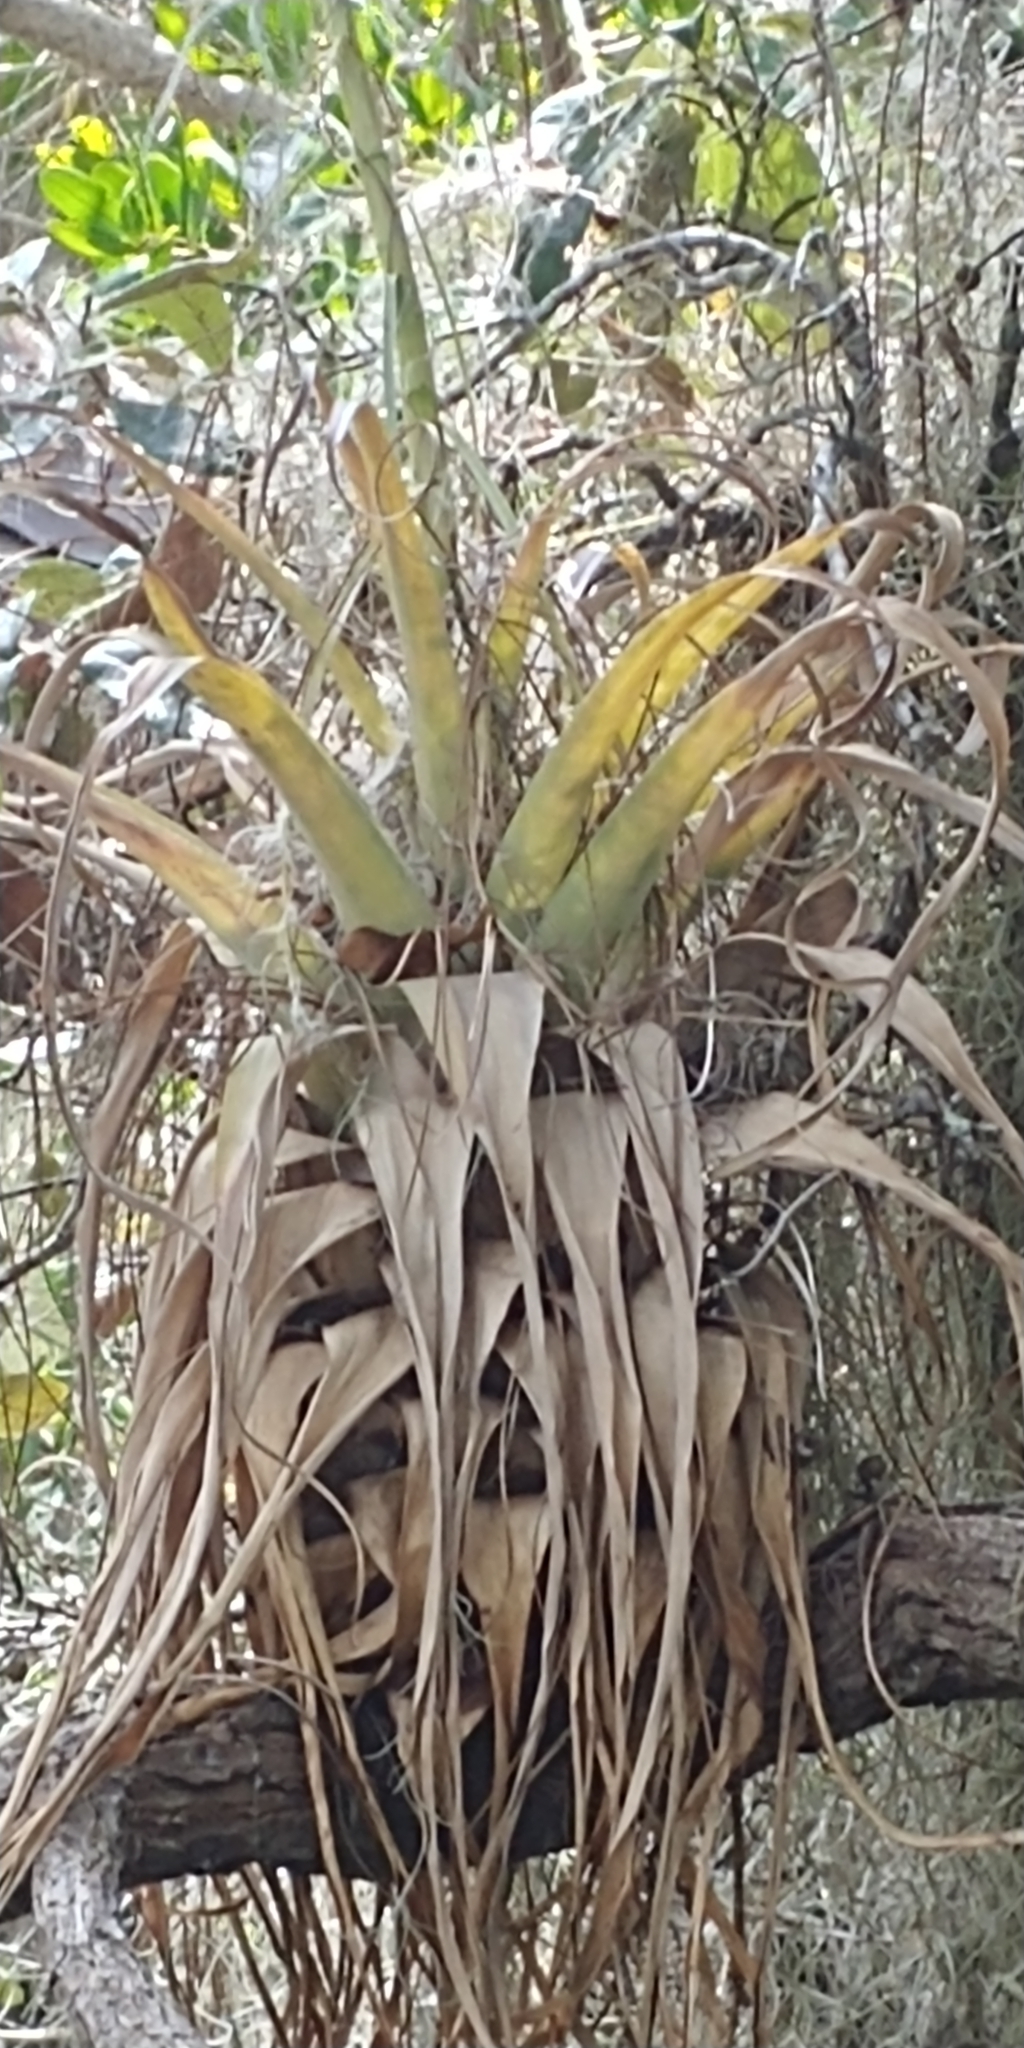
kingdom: Plantae
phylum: Tracheophyta
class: Liliopsida
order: Poales
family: Bromeliaceae
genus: Tillandsia
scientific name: Tillandsia utriculata
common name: Wild pine
